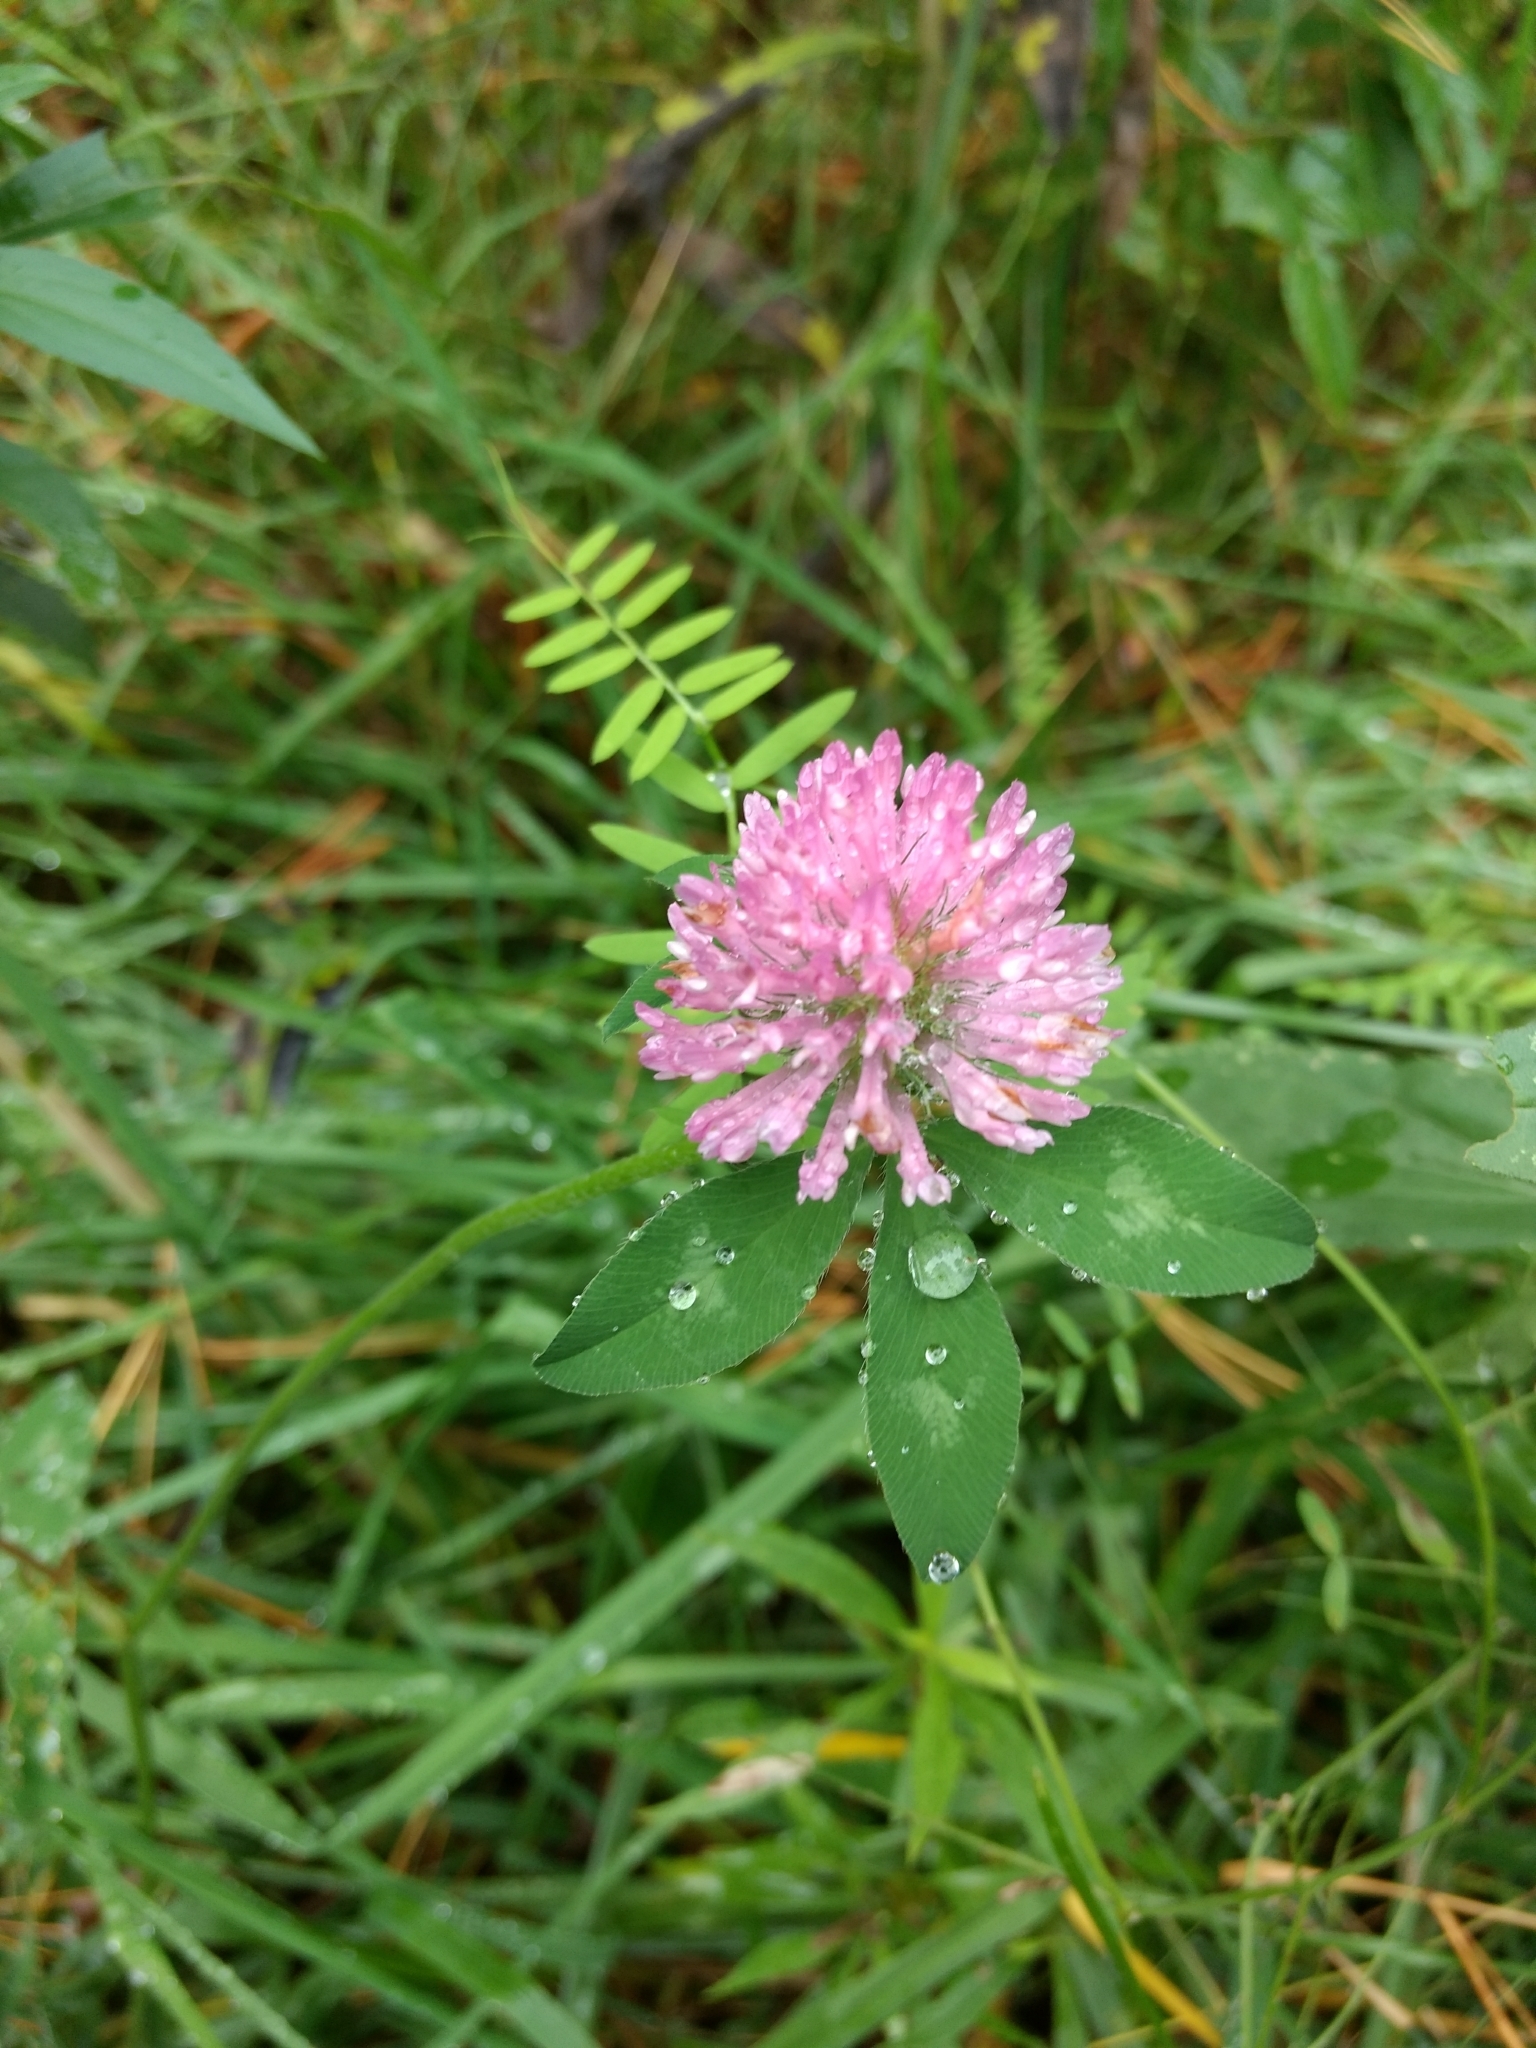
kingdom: Plantae
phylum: Tracheophyta
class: Magnoliopsida
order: Fabales
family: Fabaceae
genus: Trifolium
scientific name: Trifolium pratense
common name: Red clover
